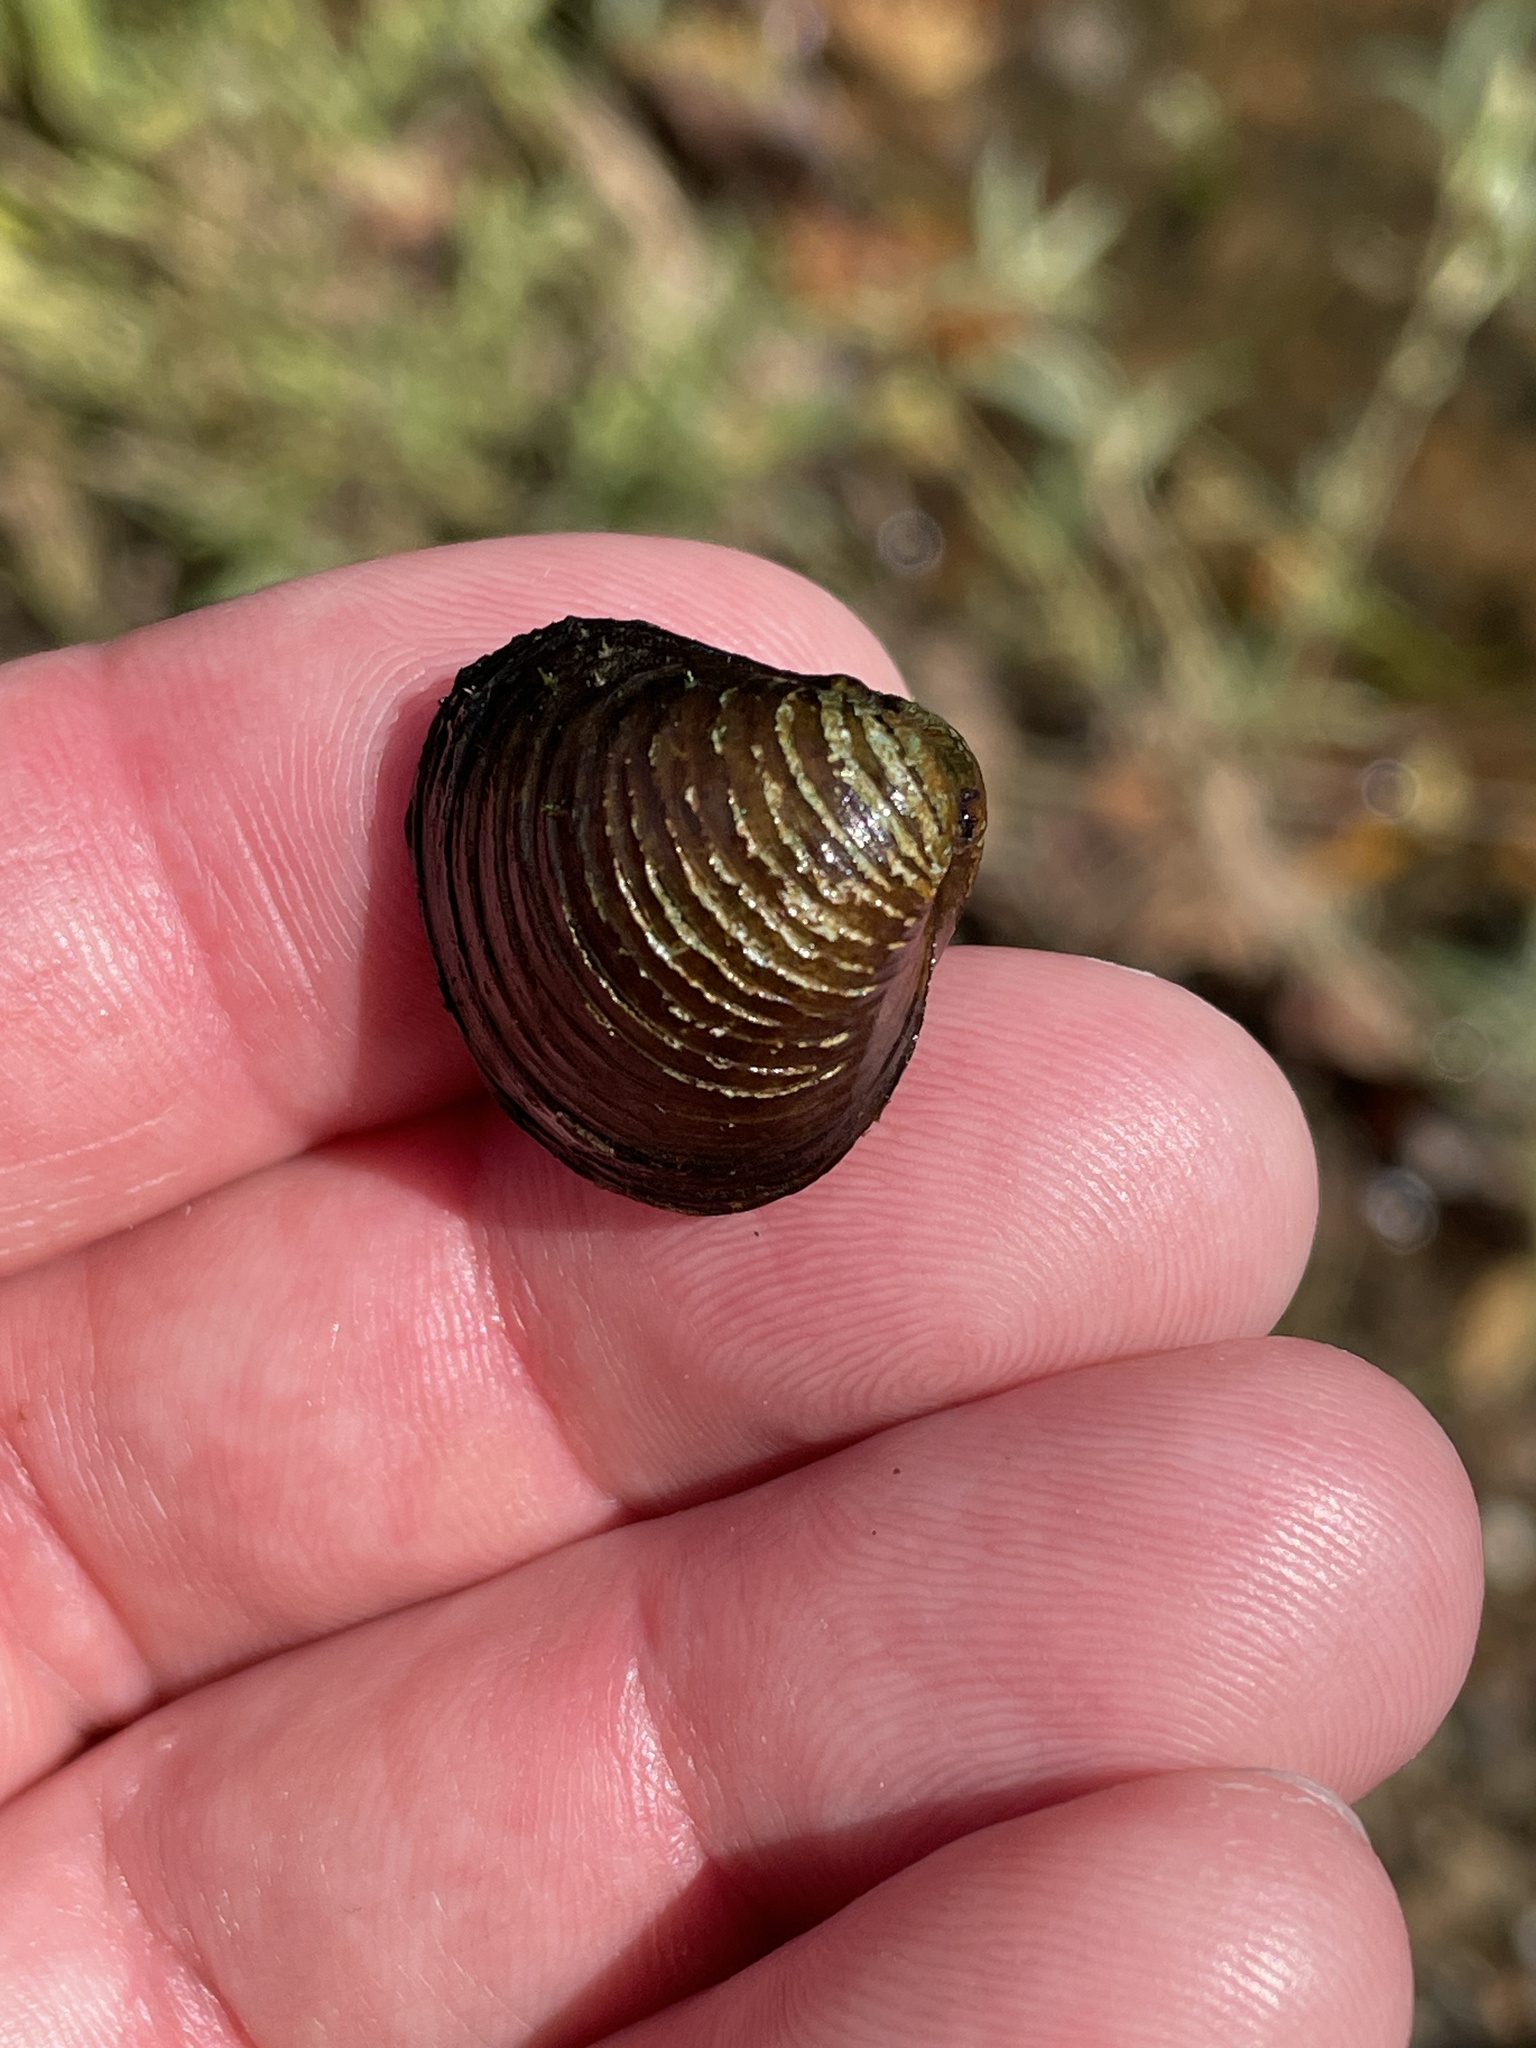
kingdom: Animalia
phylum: Mollusca
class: Bivalvia
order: Venerida
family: Cyrenidae
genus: Corbicula
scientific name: Corbicula fluminea
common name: Asian clam
